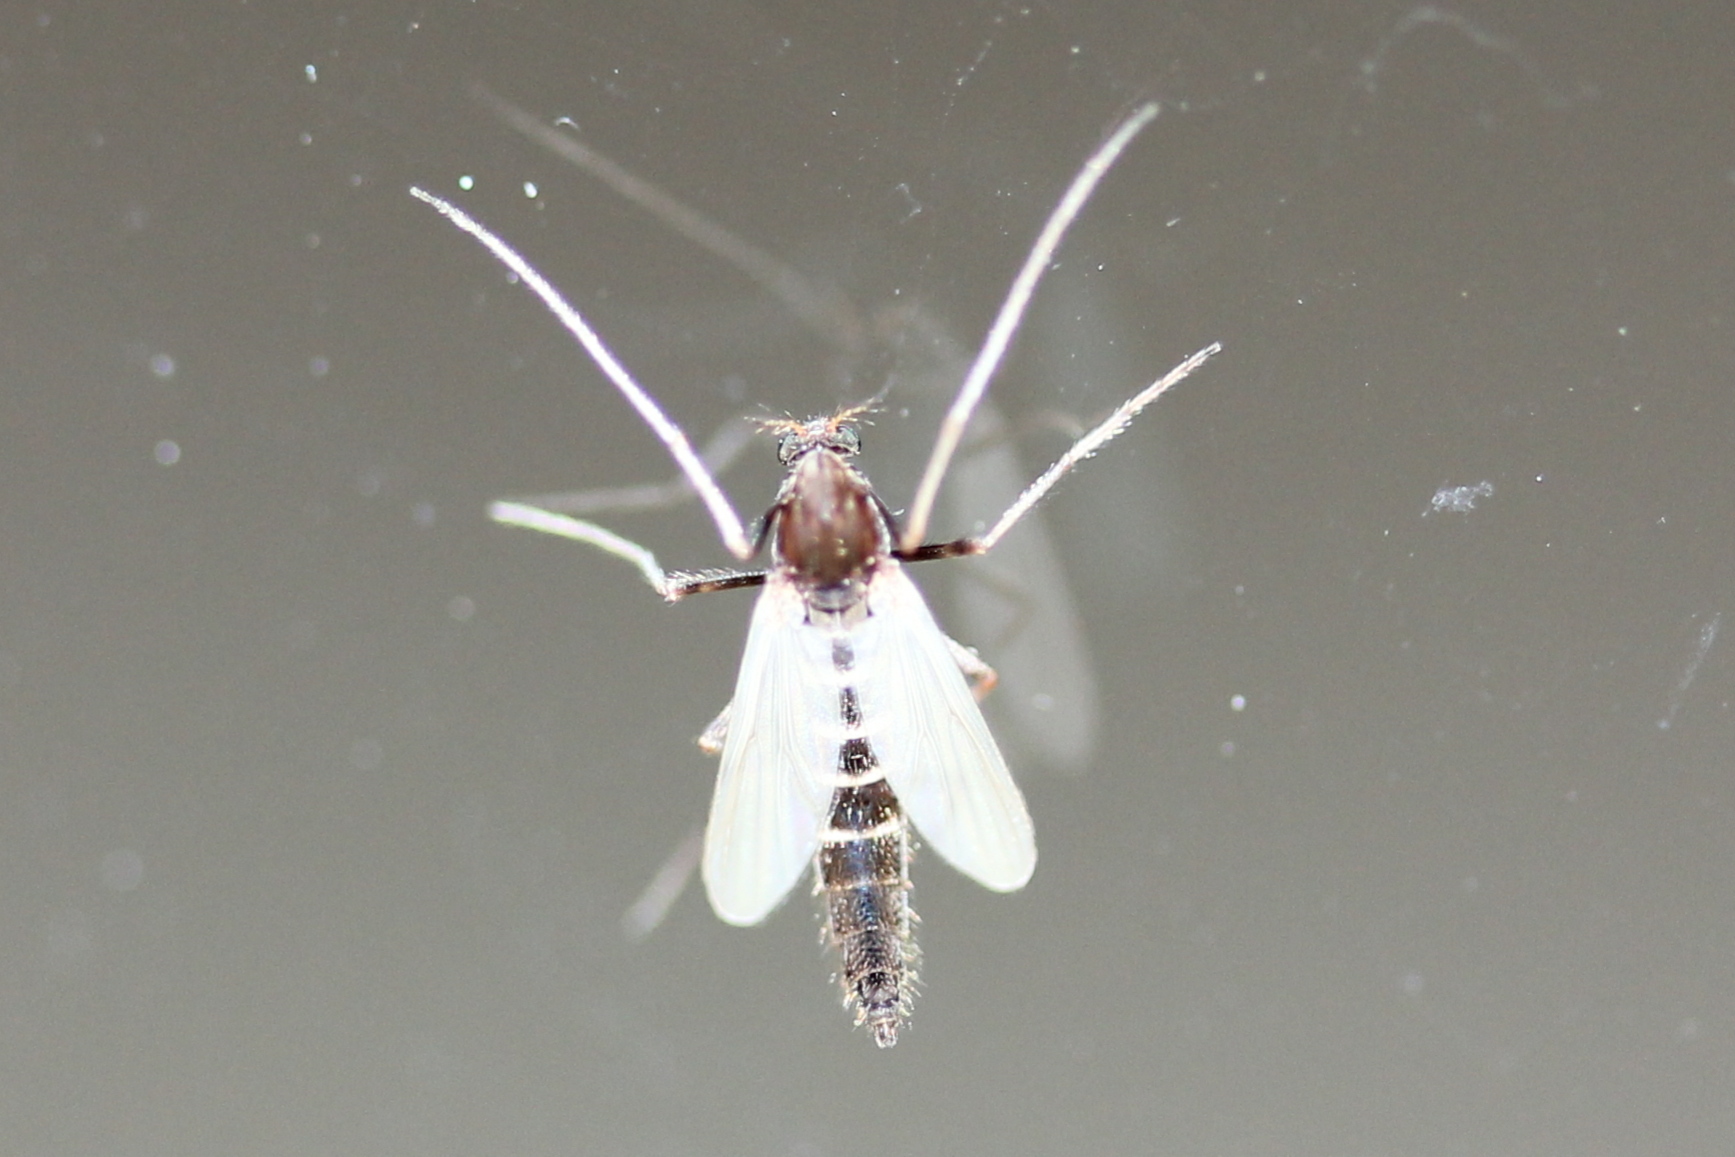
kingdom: Animalia
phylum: Arthropoda
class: Insecta
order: Diptera
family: Chironomidae
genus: Stictochironomus
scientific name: Stictochironomus albicrus
